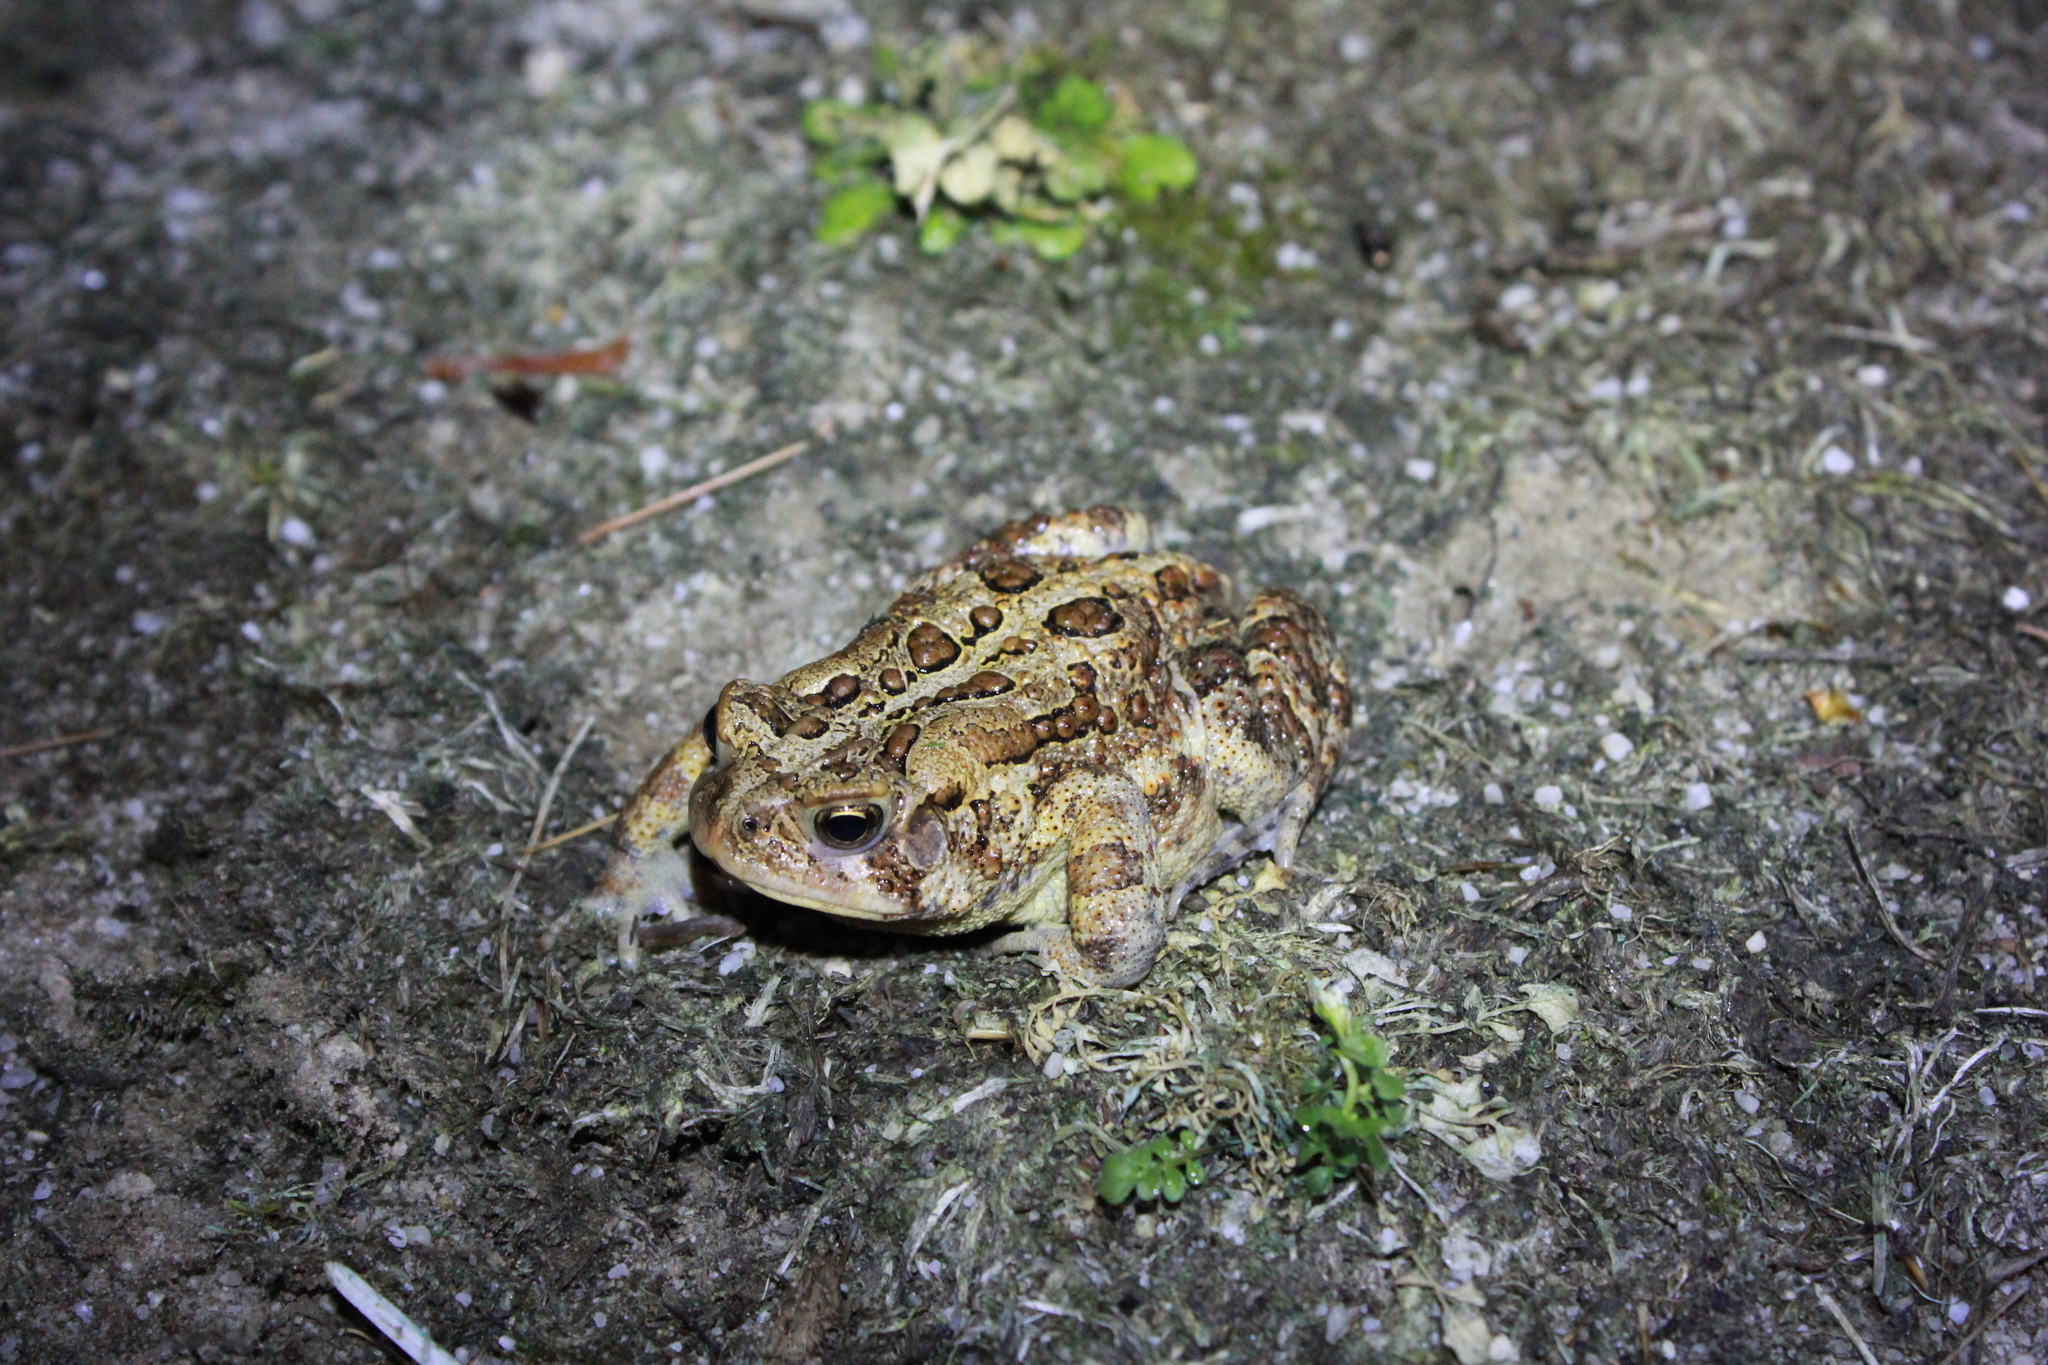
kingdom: Animalia
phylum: Chordata
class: Amphibia
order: Anura
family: Bufonidae
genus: Anaxyrus
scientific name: Anaxyrus americanus
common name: American toad
